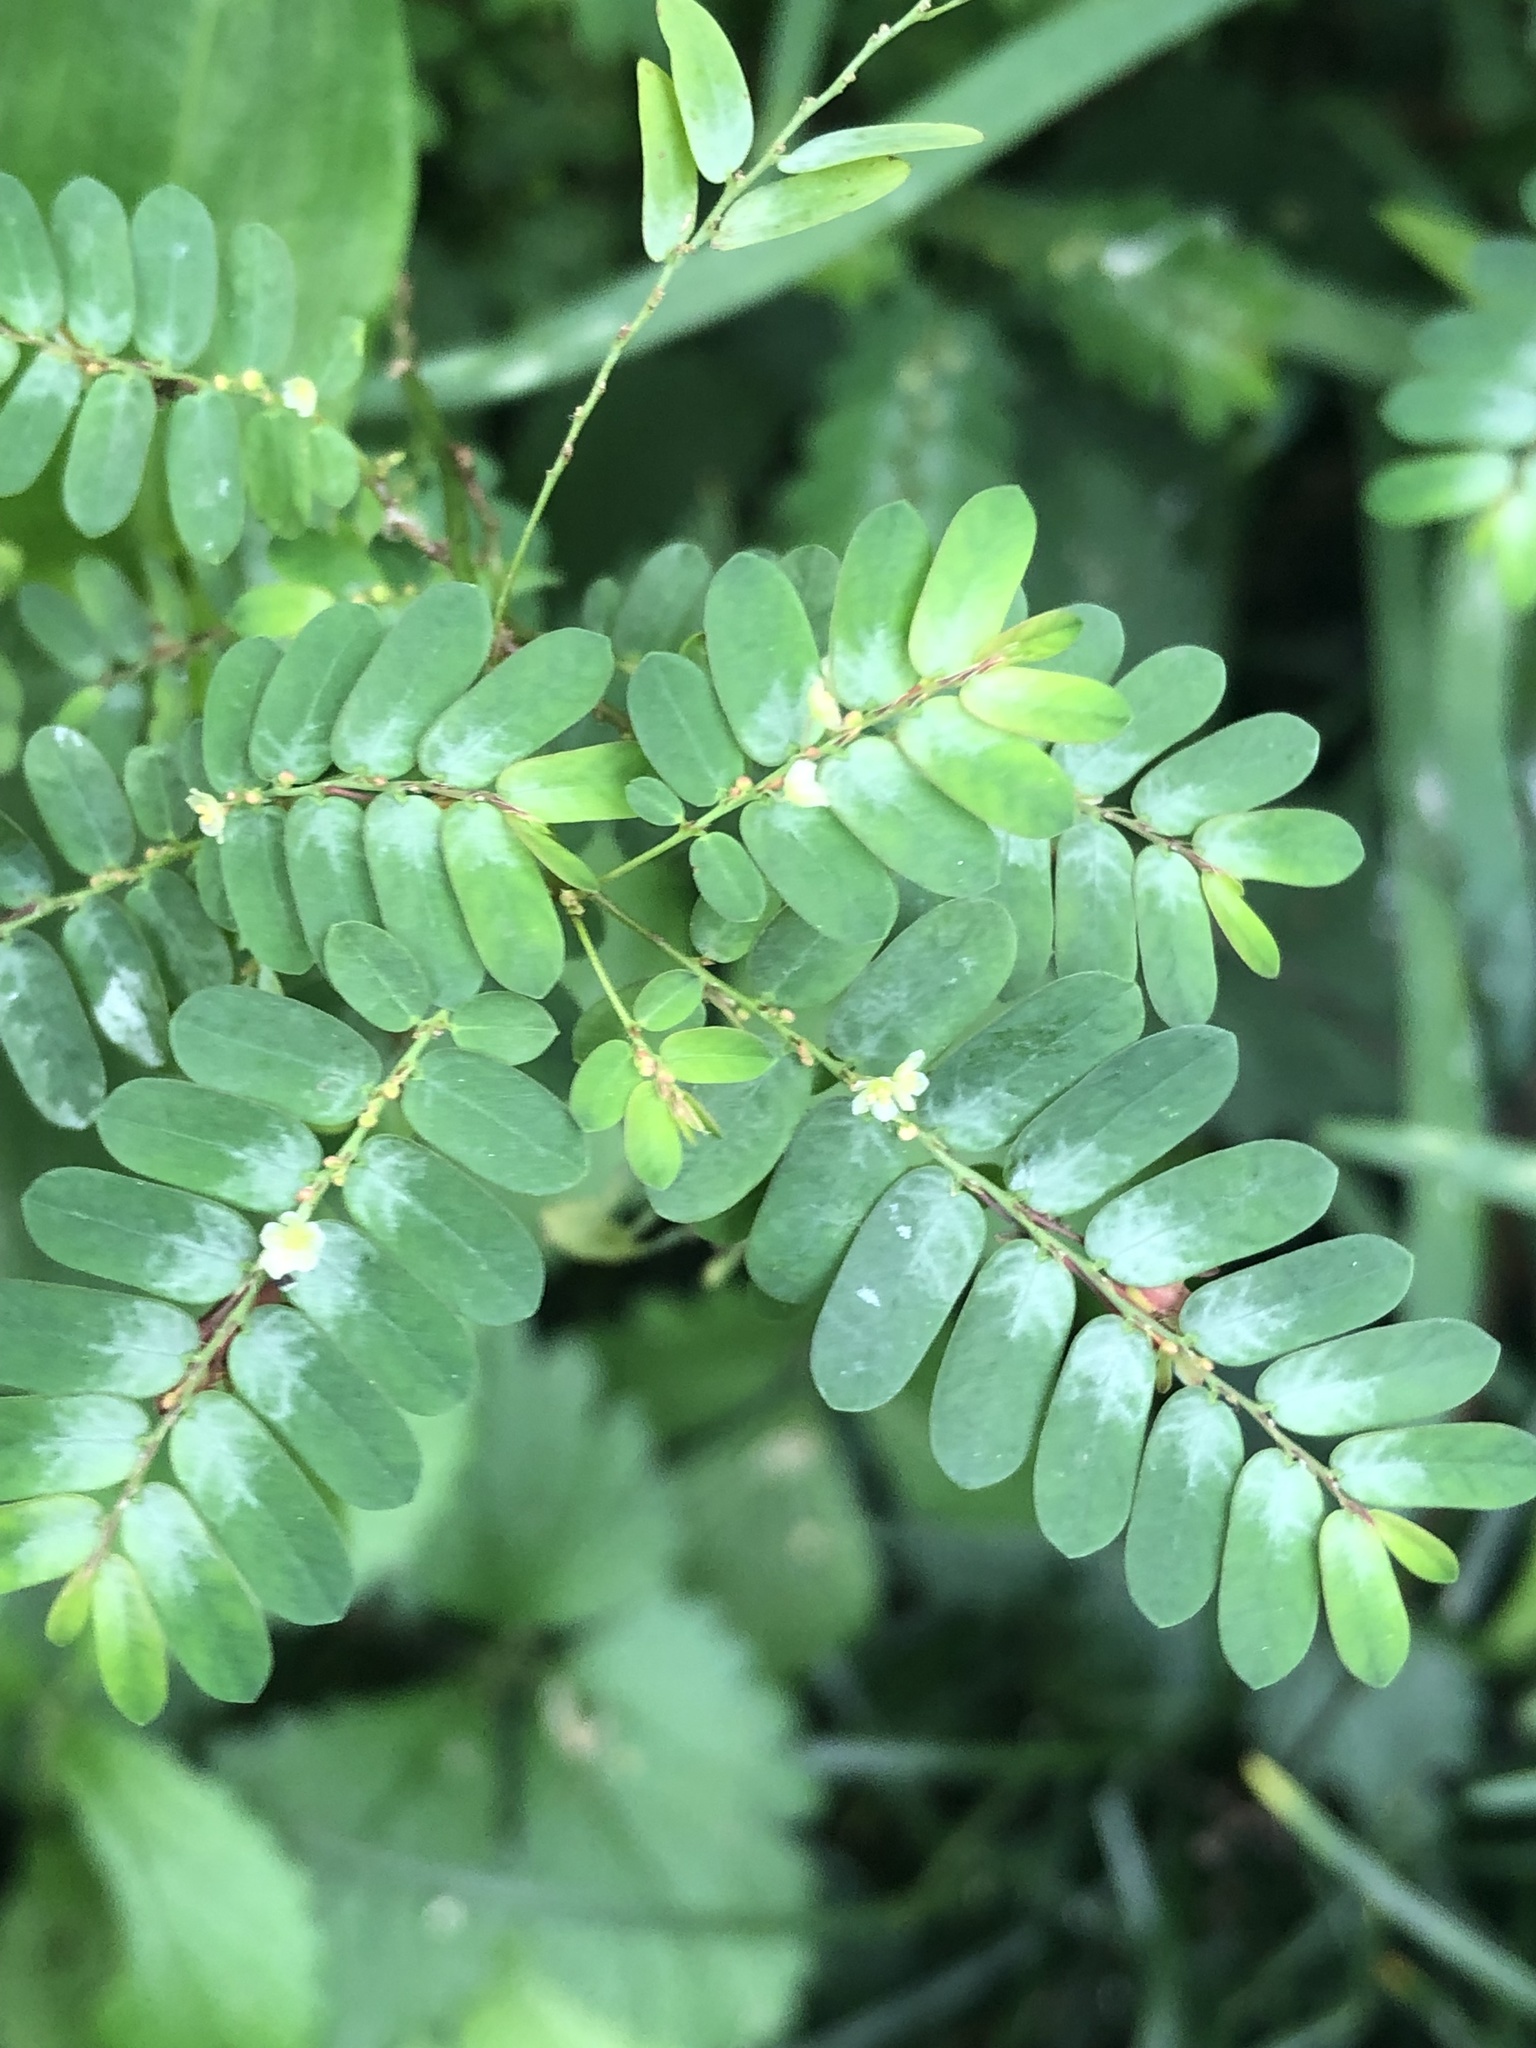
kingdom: Plantae
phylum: Tracheophyta
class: Magnoliopsida
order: Malpighiales
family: Phyllanthaceae
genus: Phyllanthus
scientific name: Phyllanthus niruri
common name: Niruri
